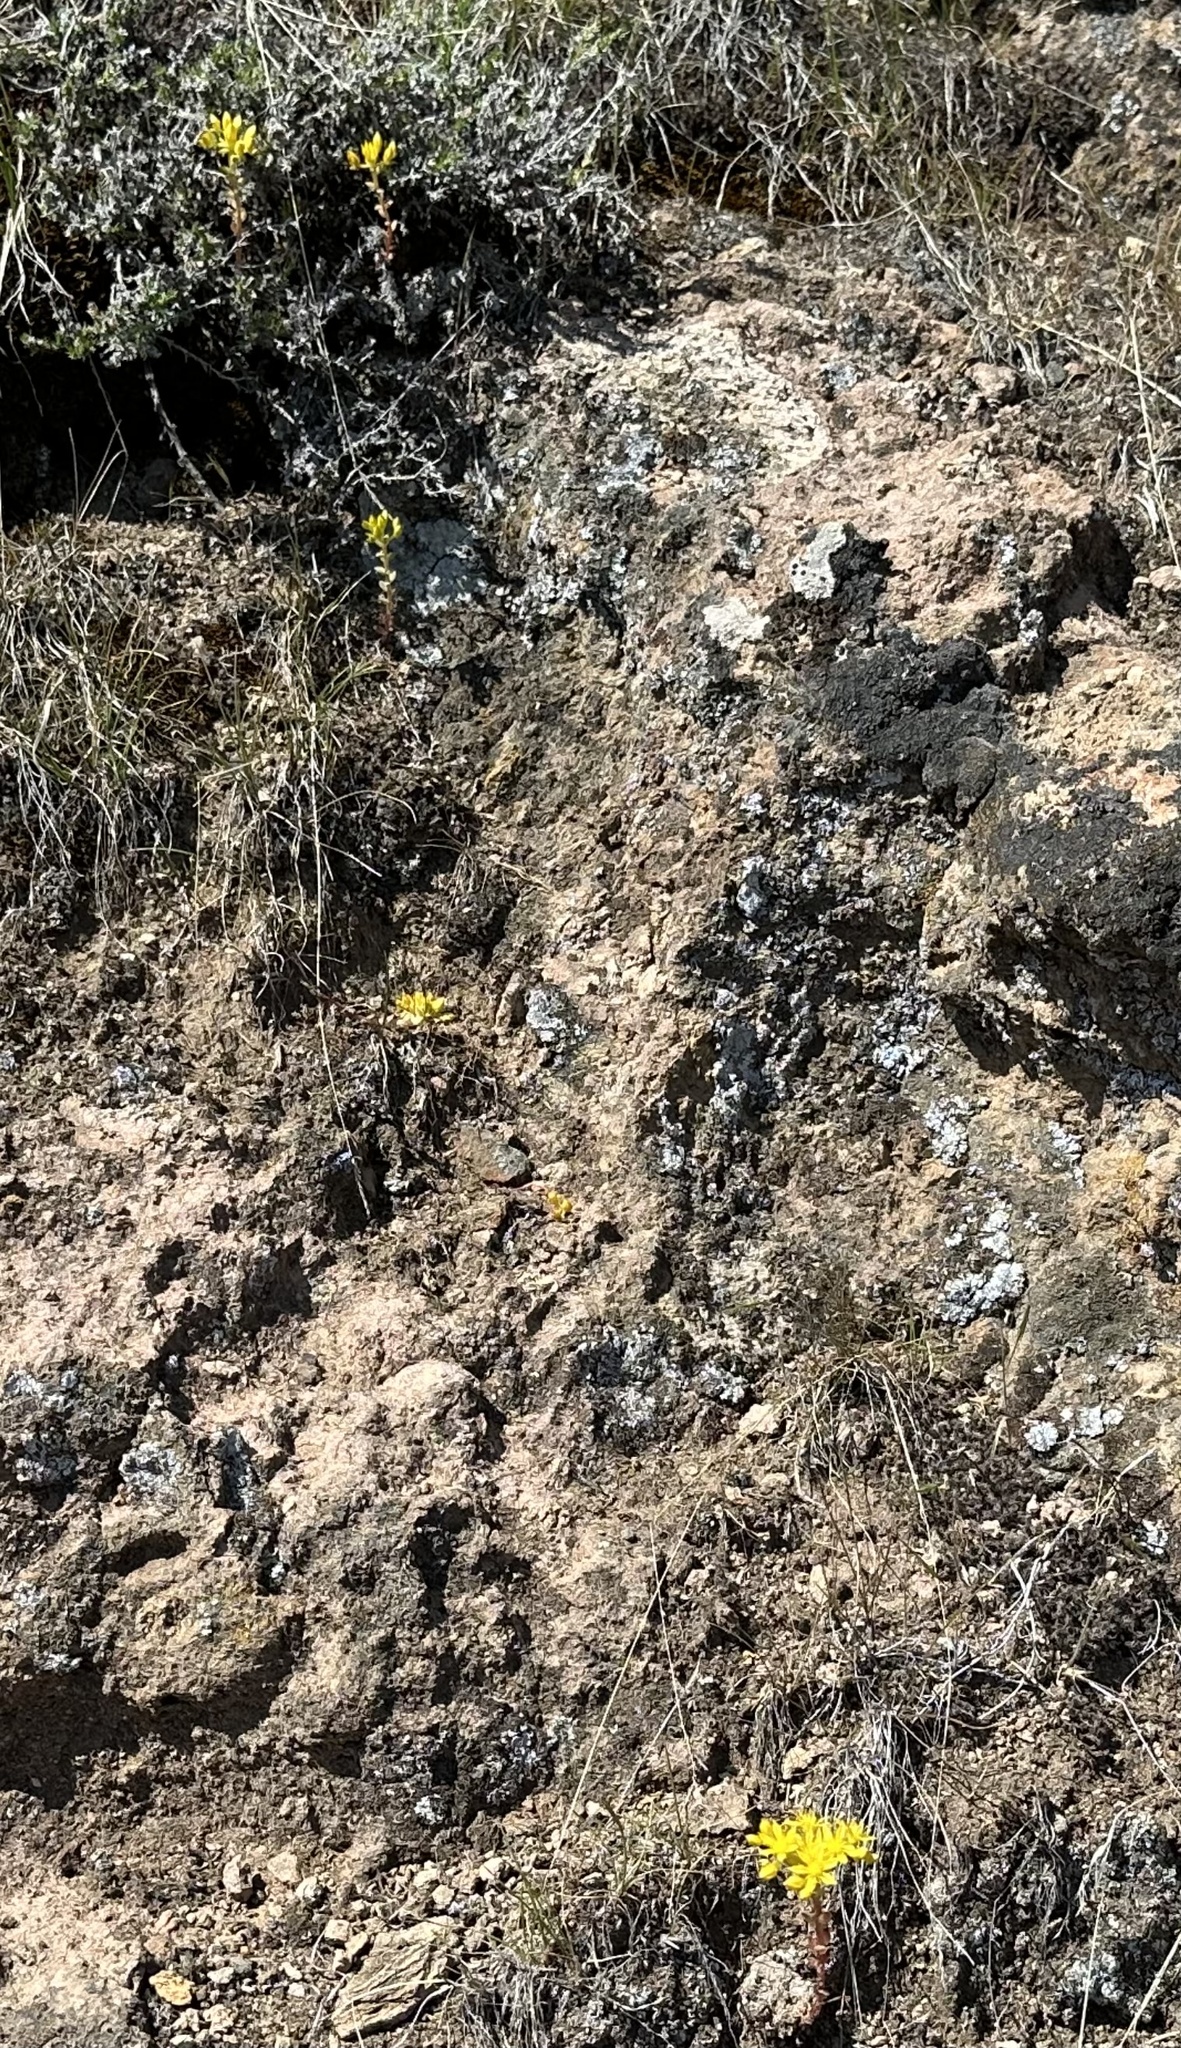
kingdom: Plantae
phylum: Tracheophyta
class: Magnoliopsida
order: Saxifragales
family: Crassulaceae
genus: Sedum
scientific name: Sedum lanceolatum
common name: Common stonecrop
